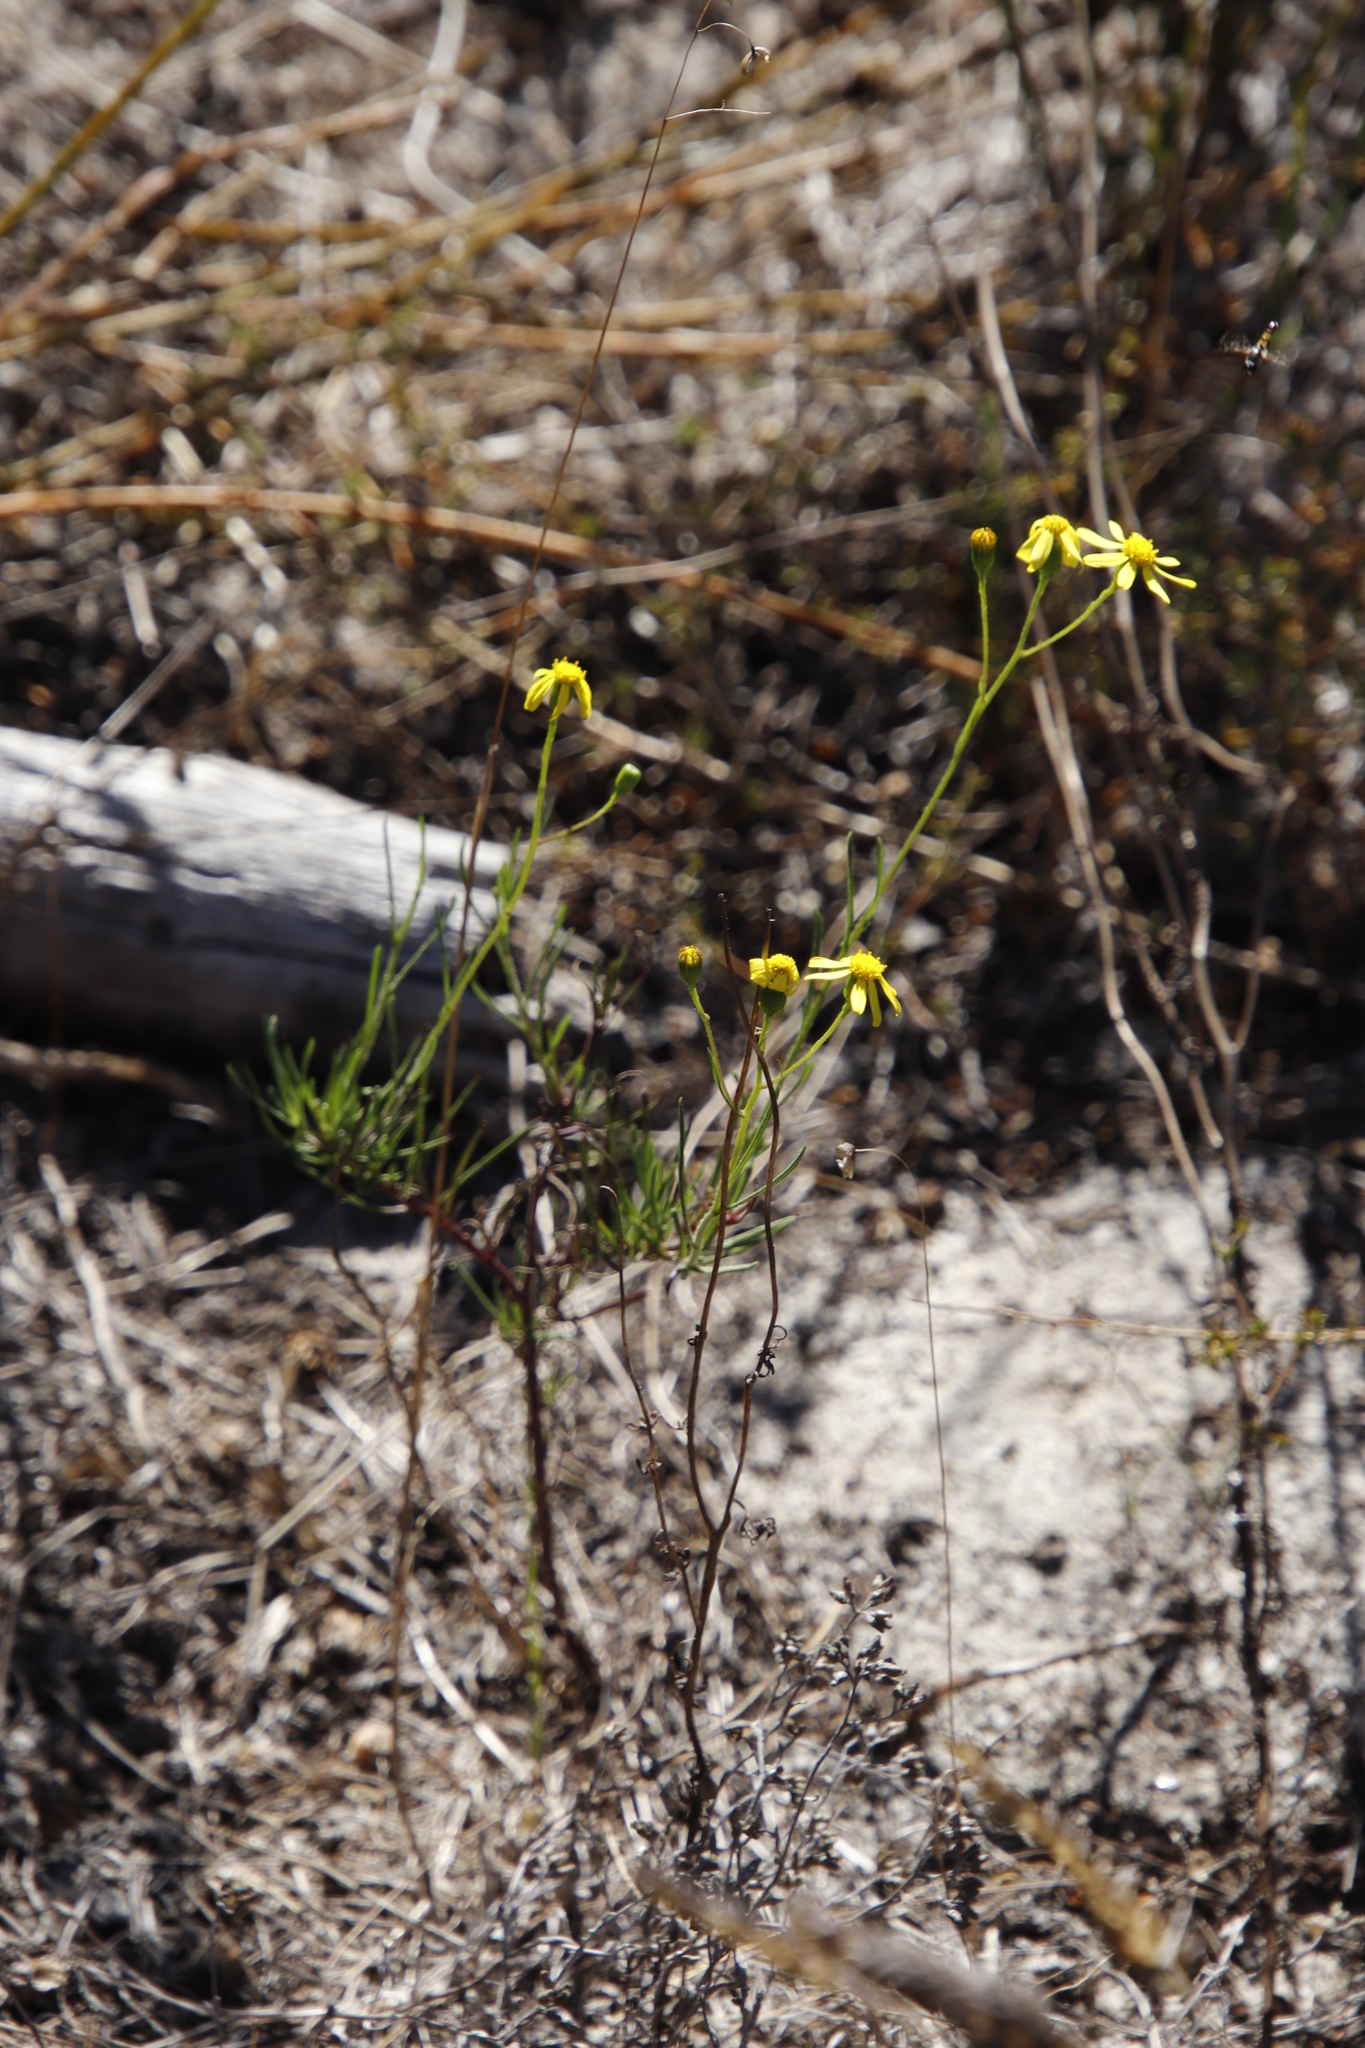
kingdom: Plantae
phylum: Tracheophyta
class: Magnoliopsida
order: Asterales
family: Asteraceae
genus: Senecio
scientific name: Senecio burchellii
